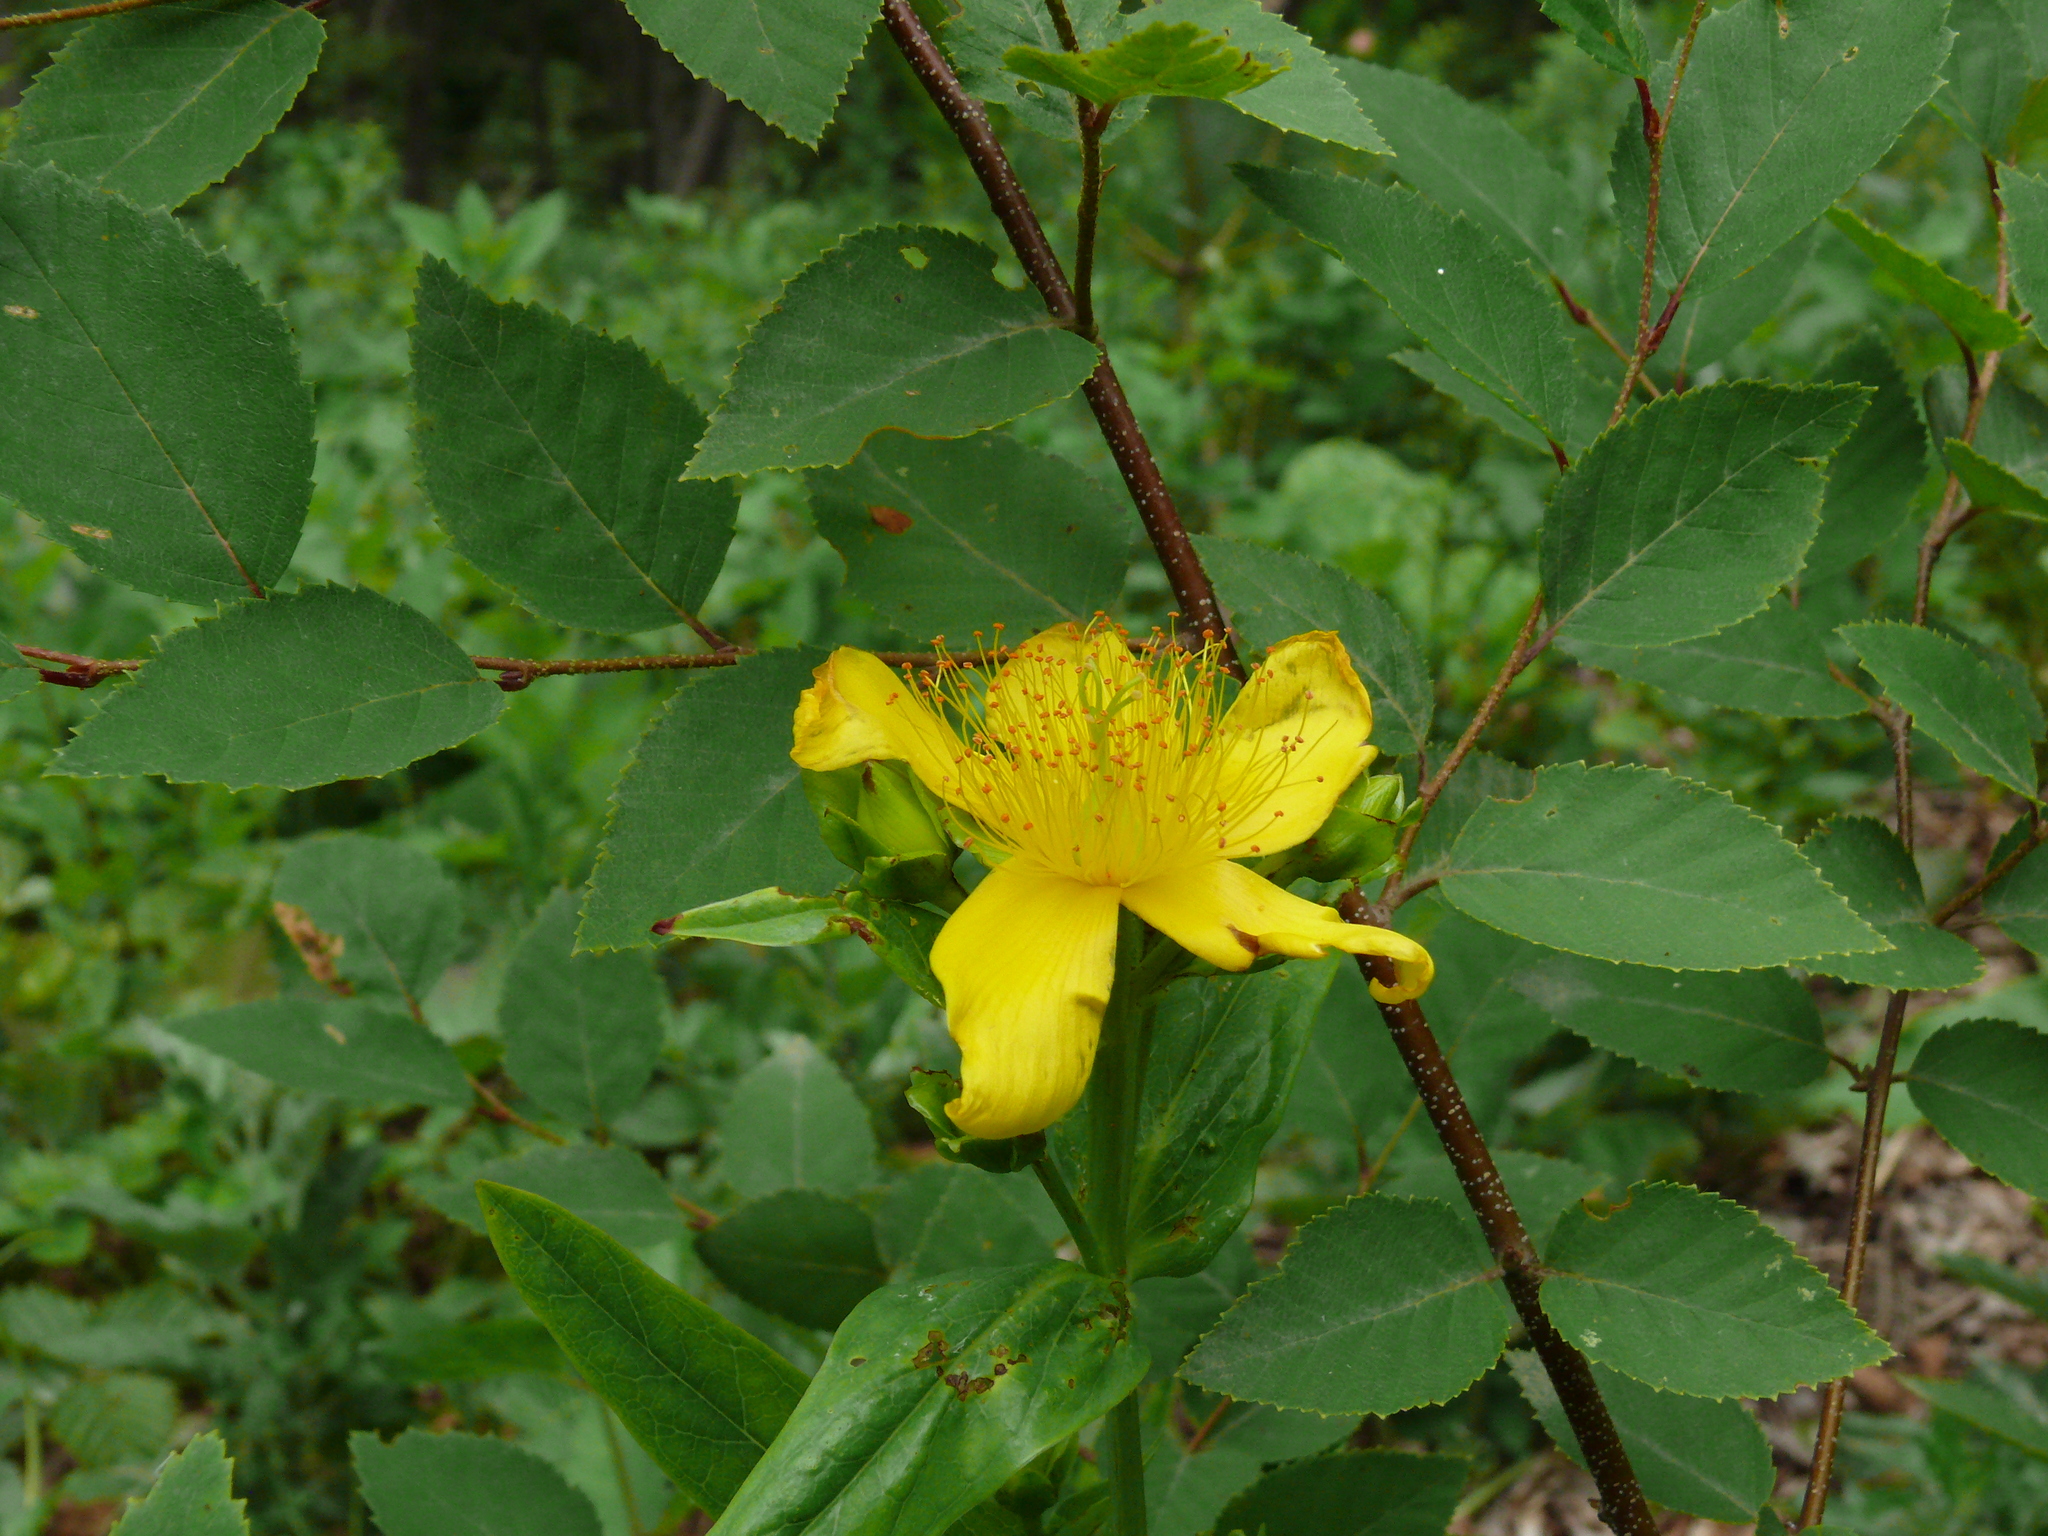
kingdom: Plantae
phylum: Tracheophyta
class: Magnoliopsida
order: Malpighiales
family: Hypericaceae
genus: Hypericum
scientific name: Hypericum ascyron
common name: Giant st. john's-wort
